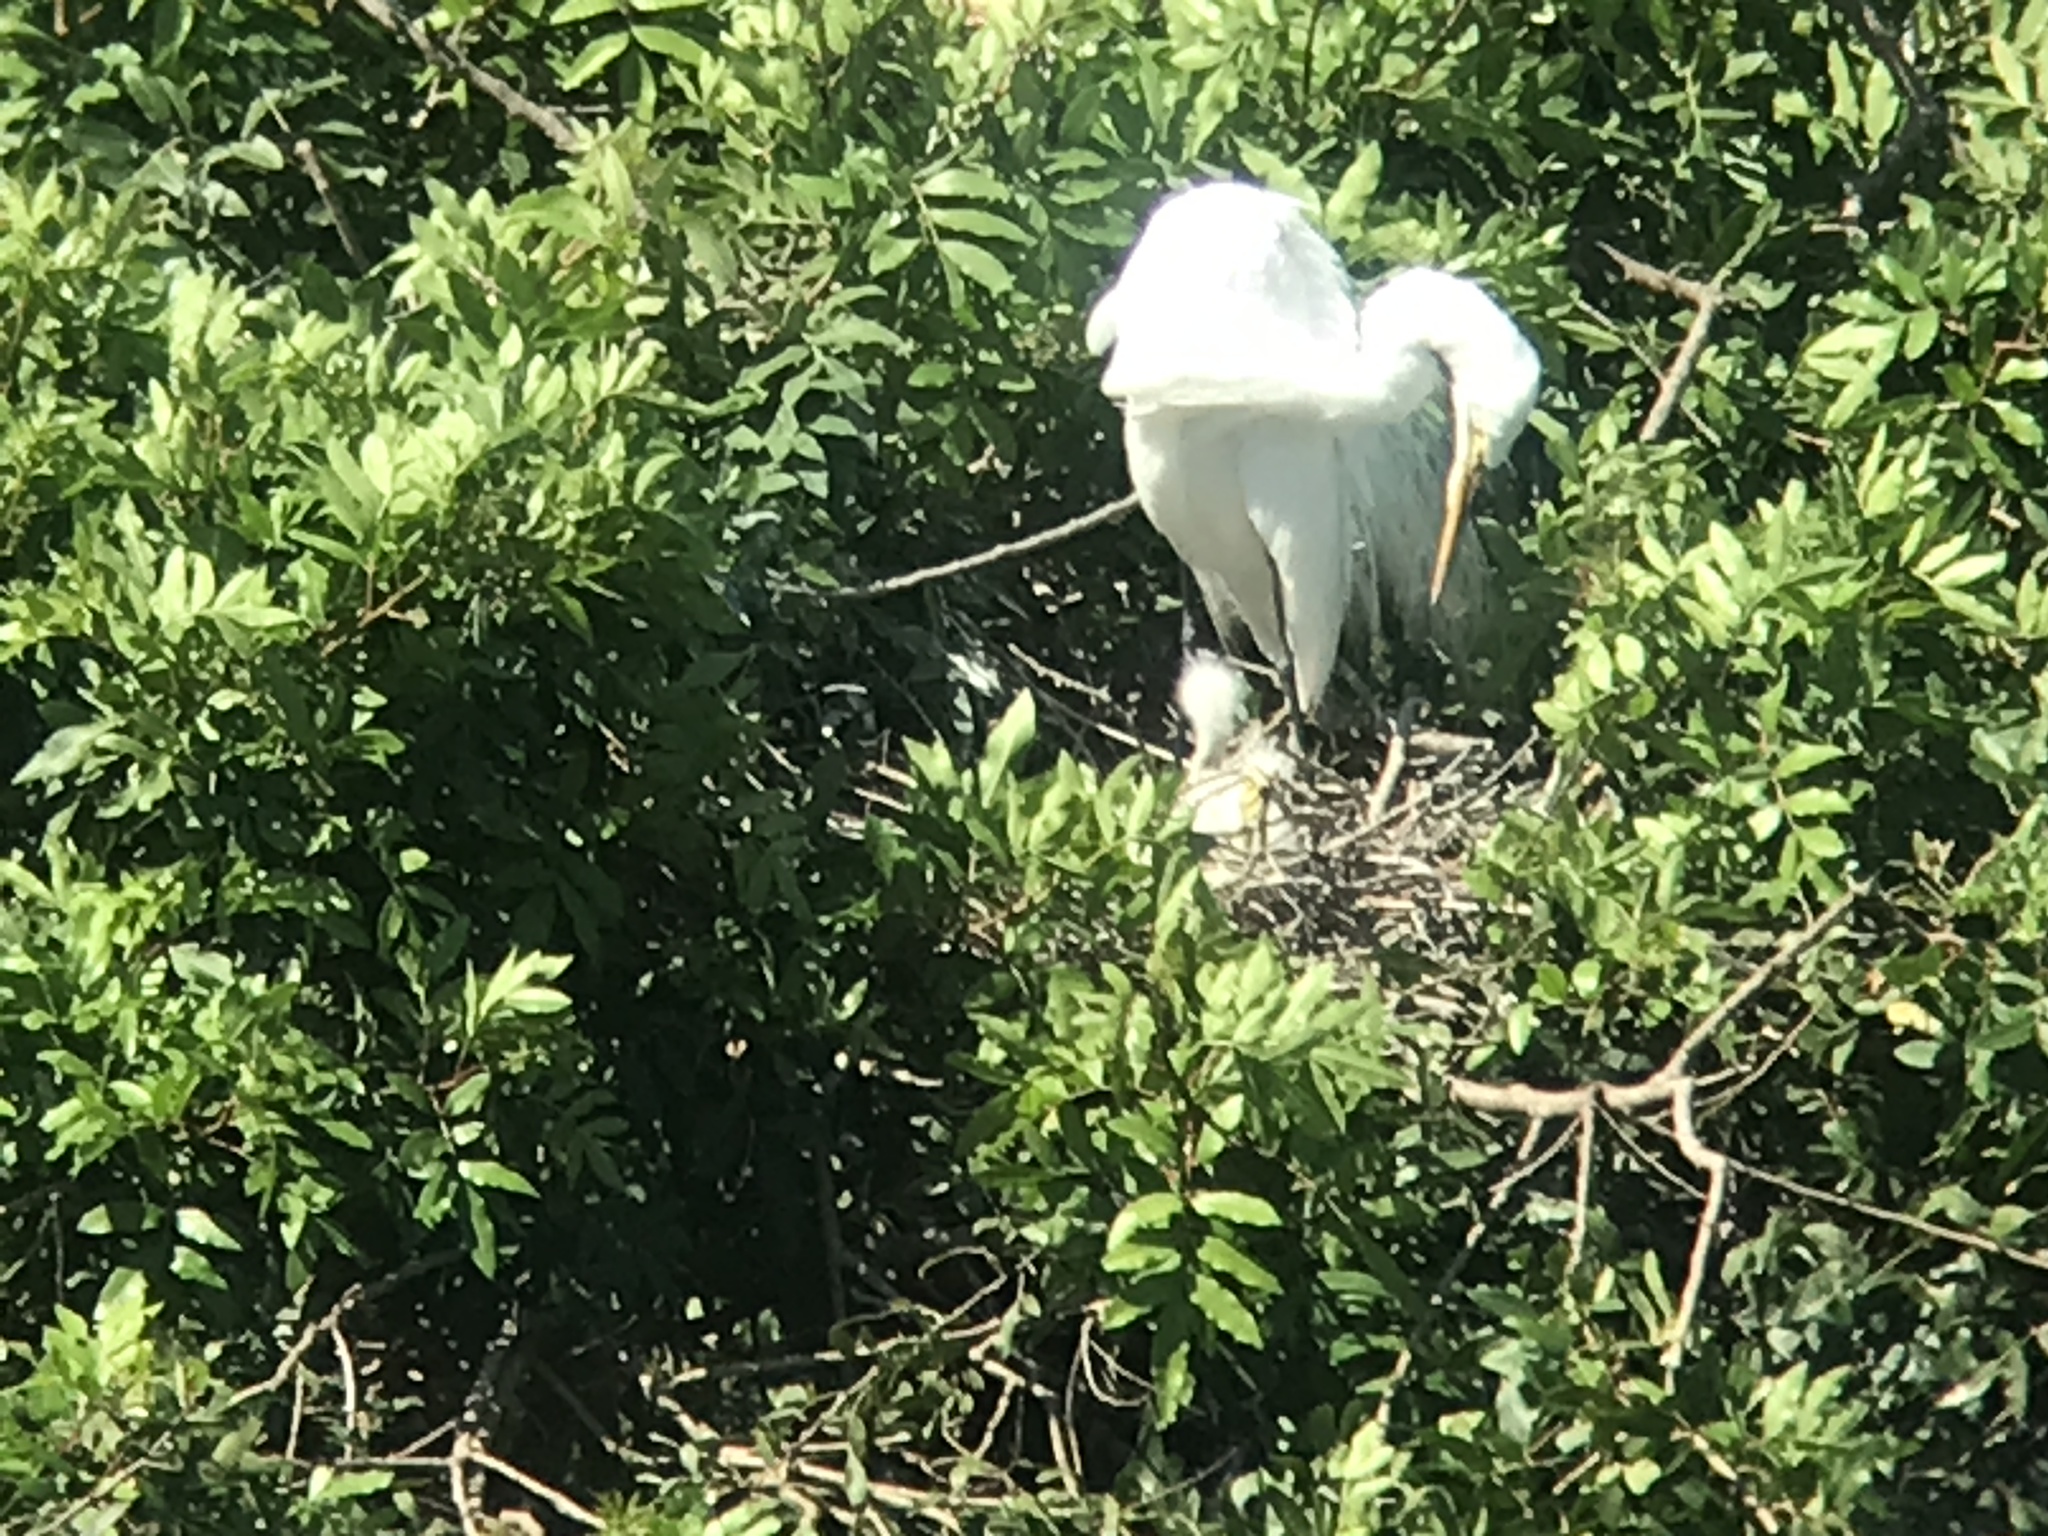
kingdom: Animalia
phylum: Chordata
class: Aves
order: Pelecaniformes
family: Ardeidae
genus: Ardea
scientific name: Ardea alba
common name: Great egret
